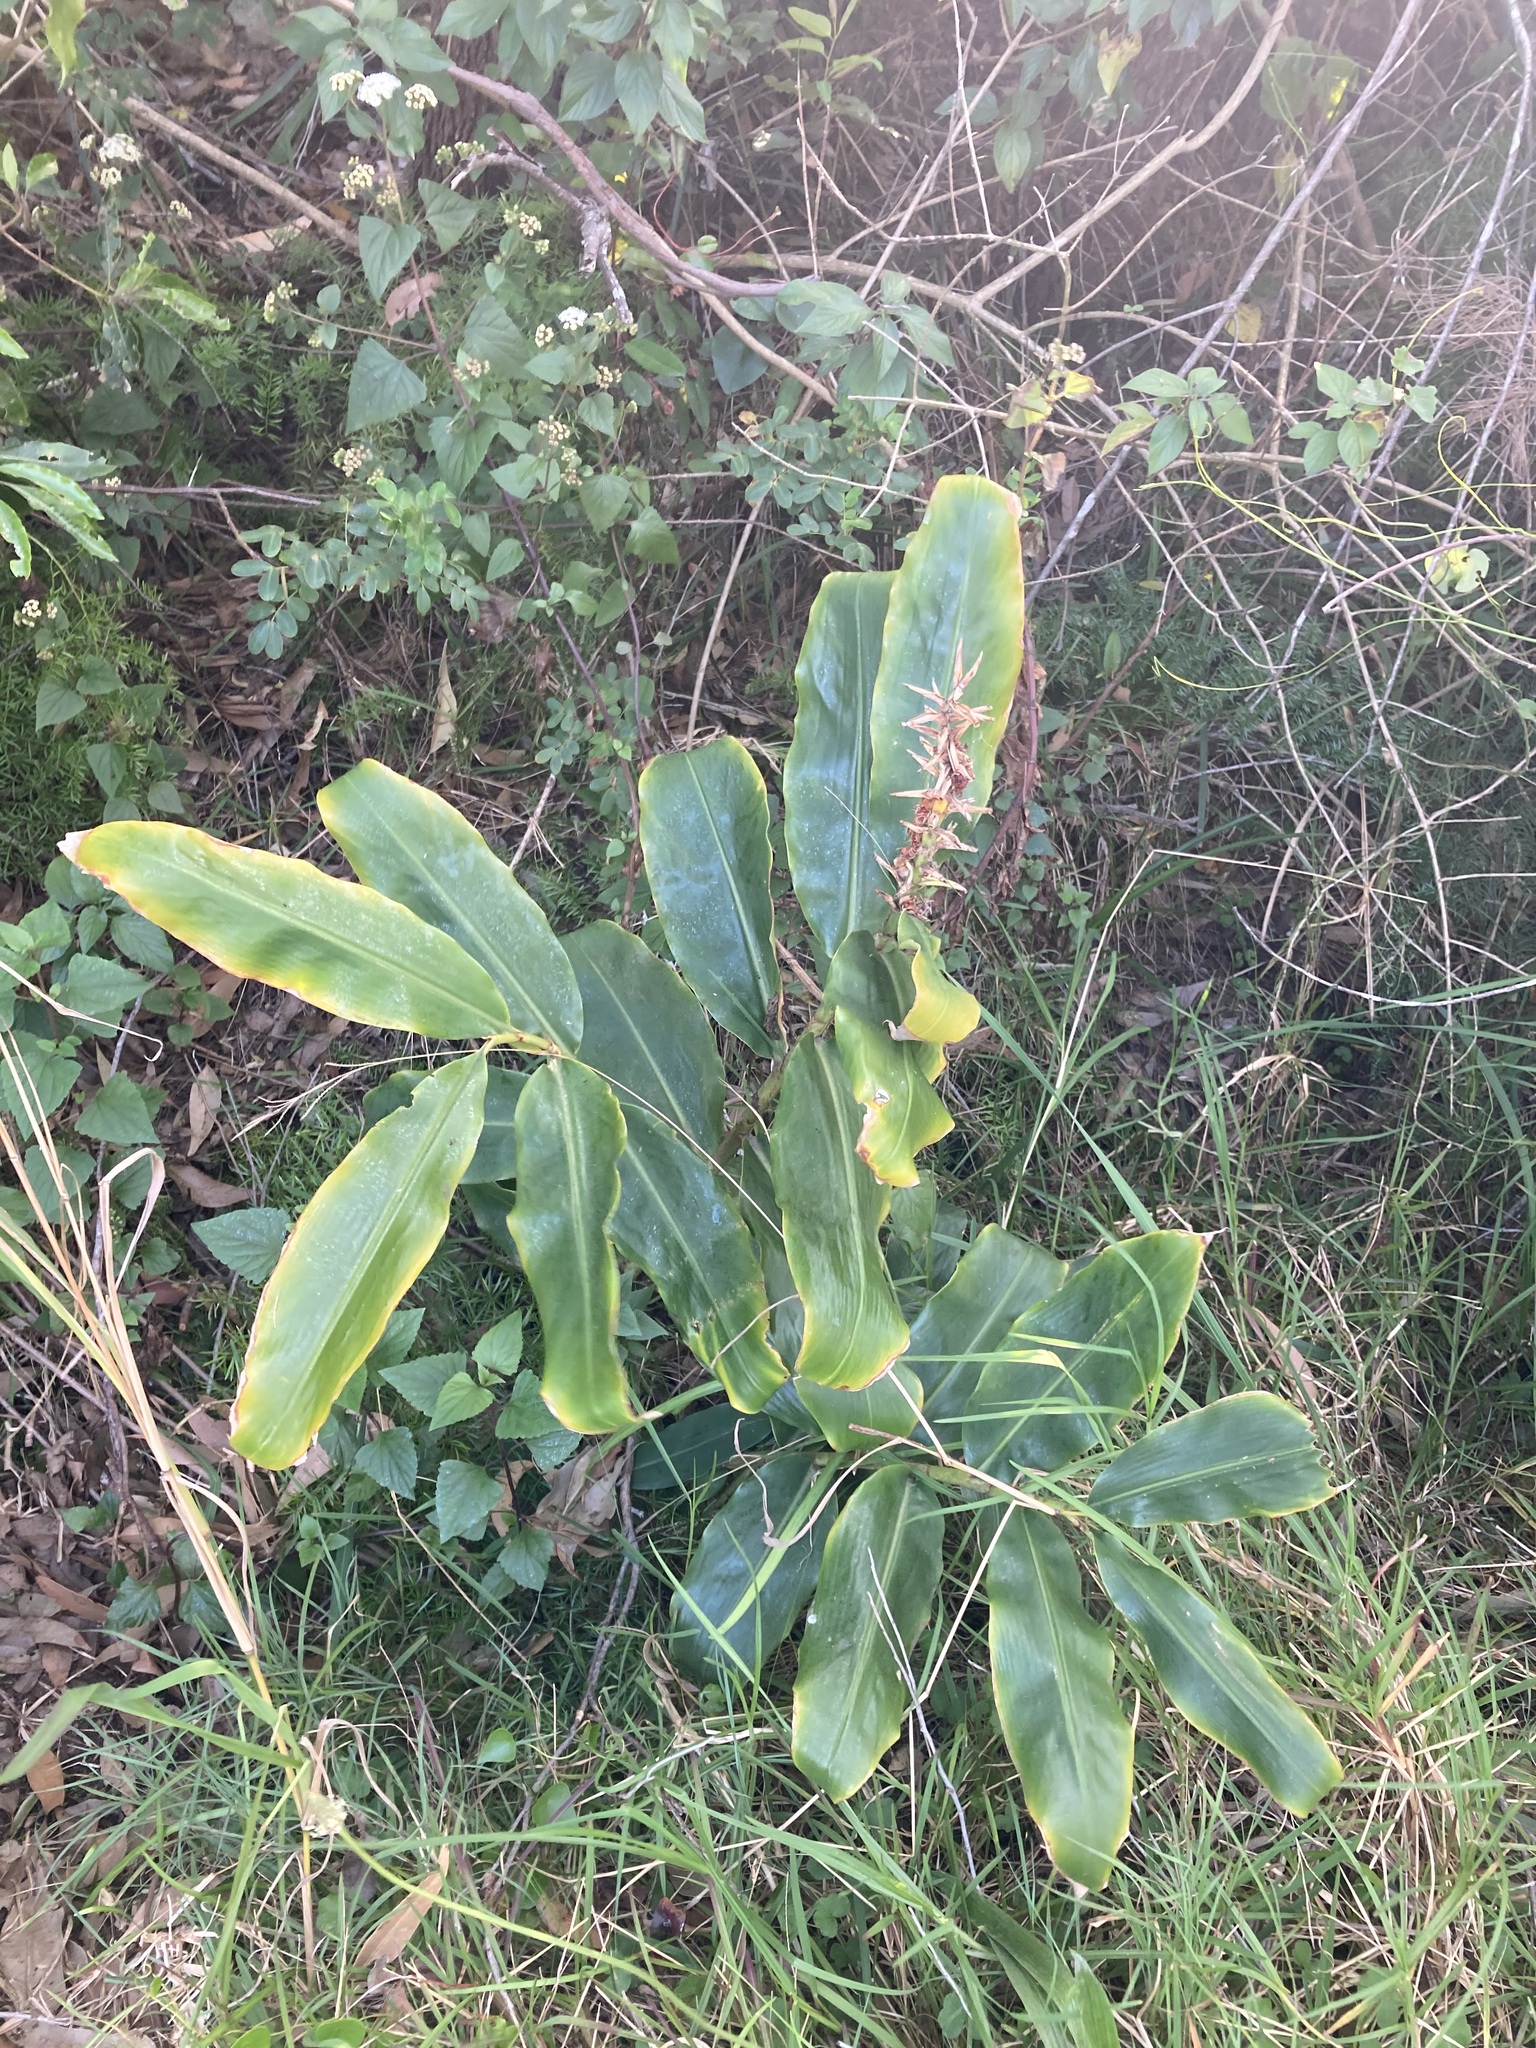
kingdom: Plantae
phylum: Tracheophyta
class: Liliopsida
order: Zingiberales
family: Zingiberaceae
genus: Hedychium
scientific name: Hedychium gardnerianum
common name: Himalayan ginger
